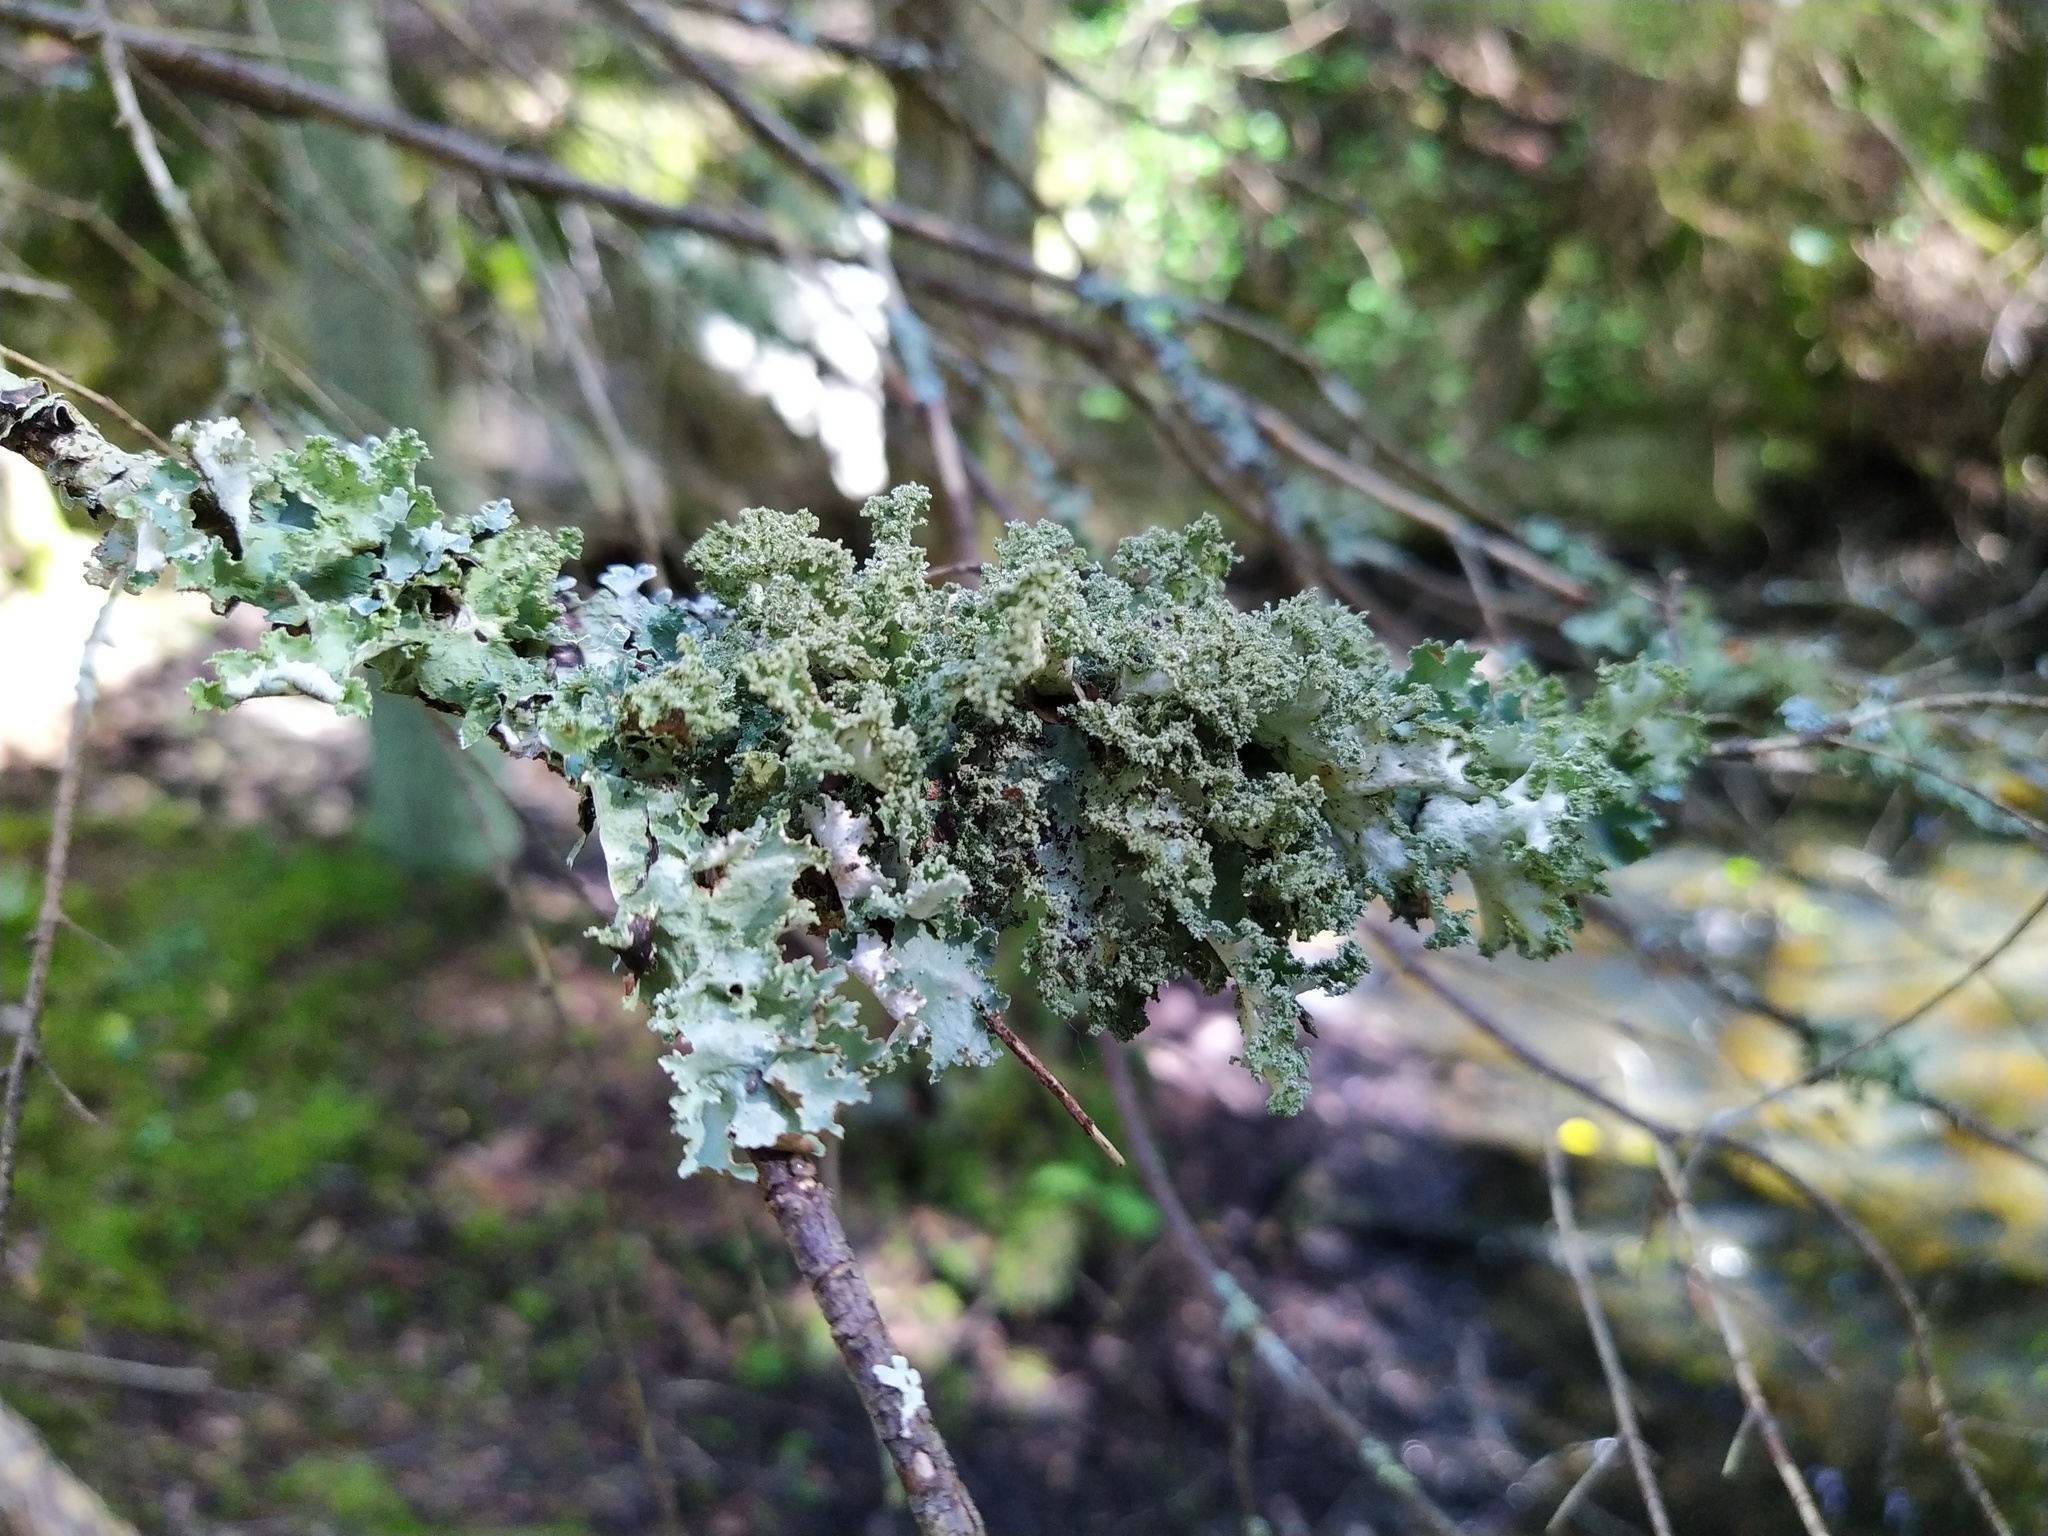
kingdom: Fungi
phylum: Ascomycota
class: Lecanoromycetes
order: Lecanorales
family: Parmeliaceae
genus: Platismatia
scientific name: Platismatia glauca
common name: Varied rag lichen
